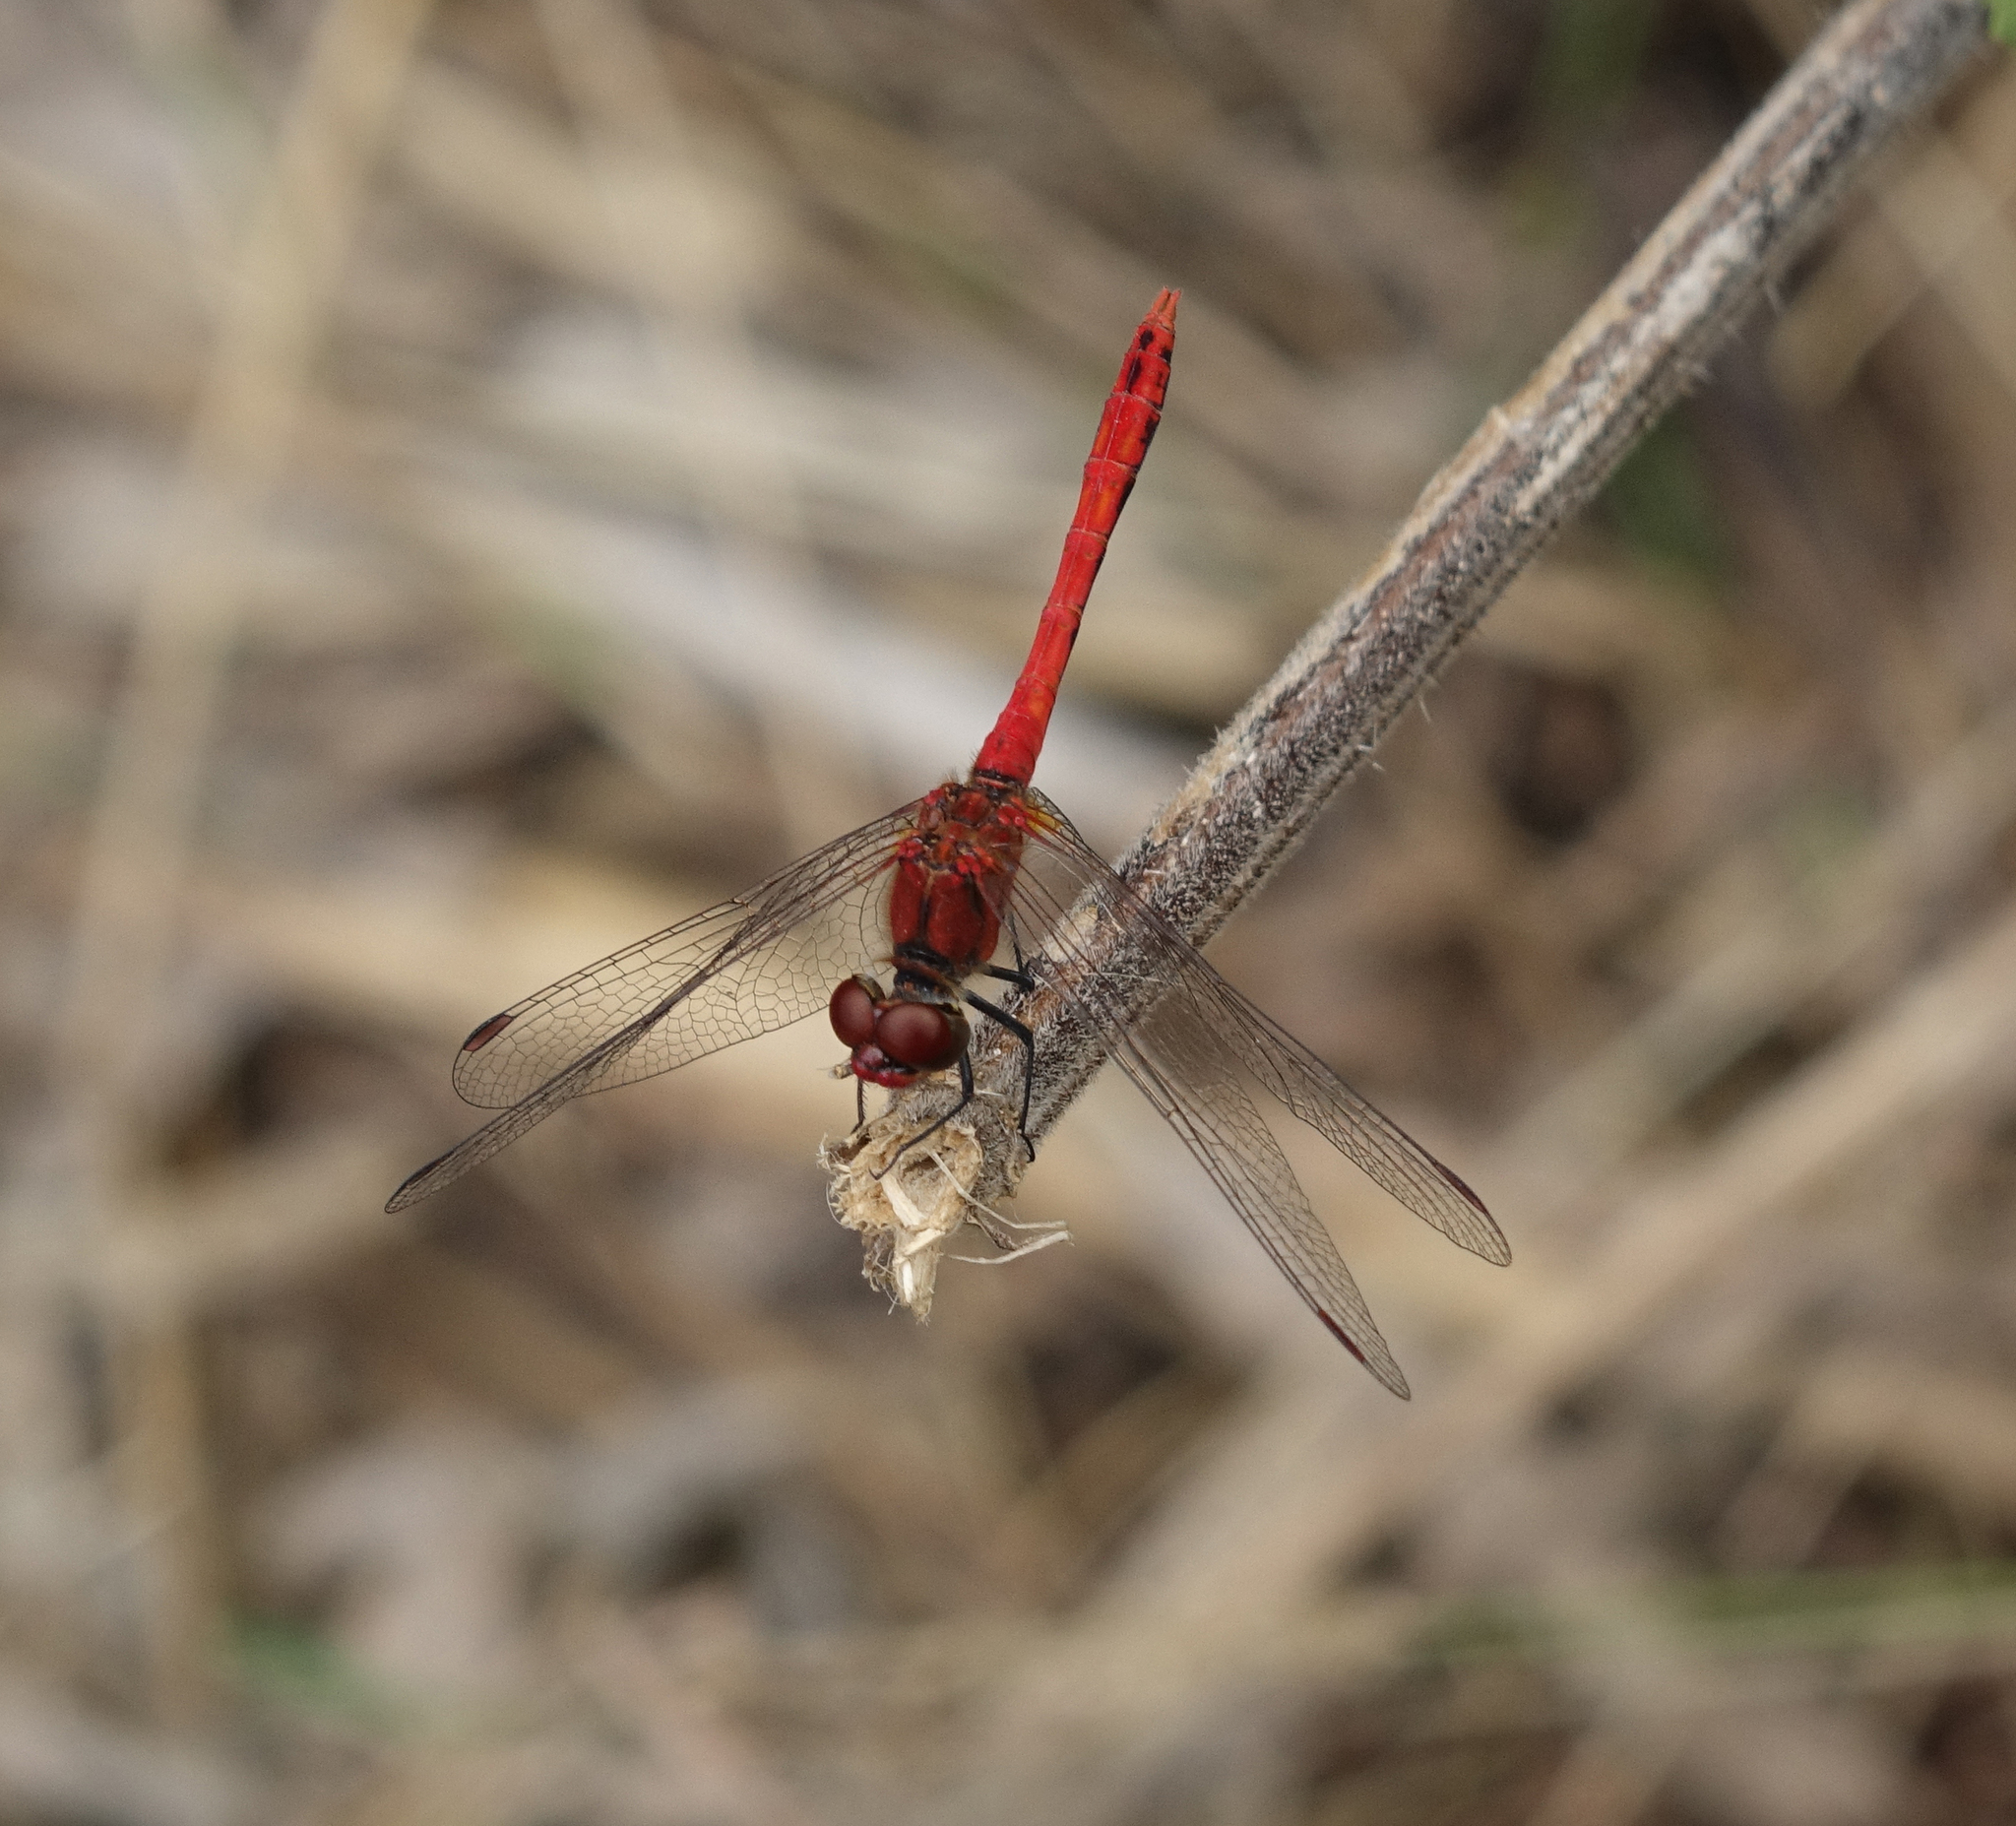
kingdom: Animalia
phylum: Arthropoda
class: Insecta
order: Odonata
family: Libellulidae
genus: Sympetrum
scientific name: Sympetrum sanguineum
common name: Ruddy darter
